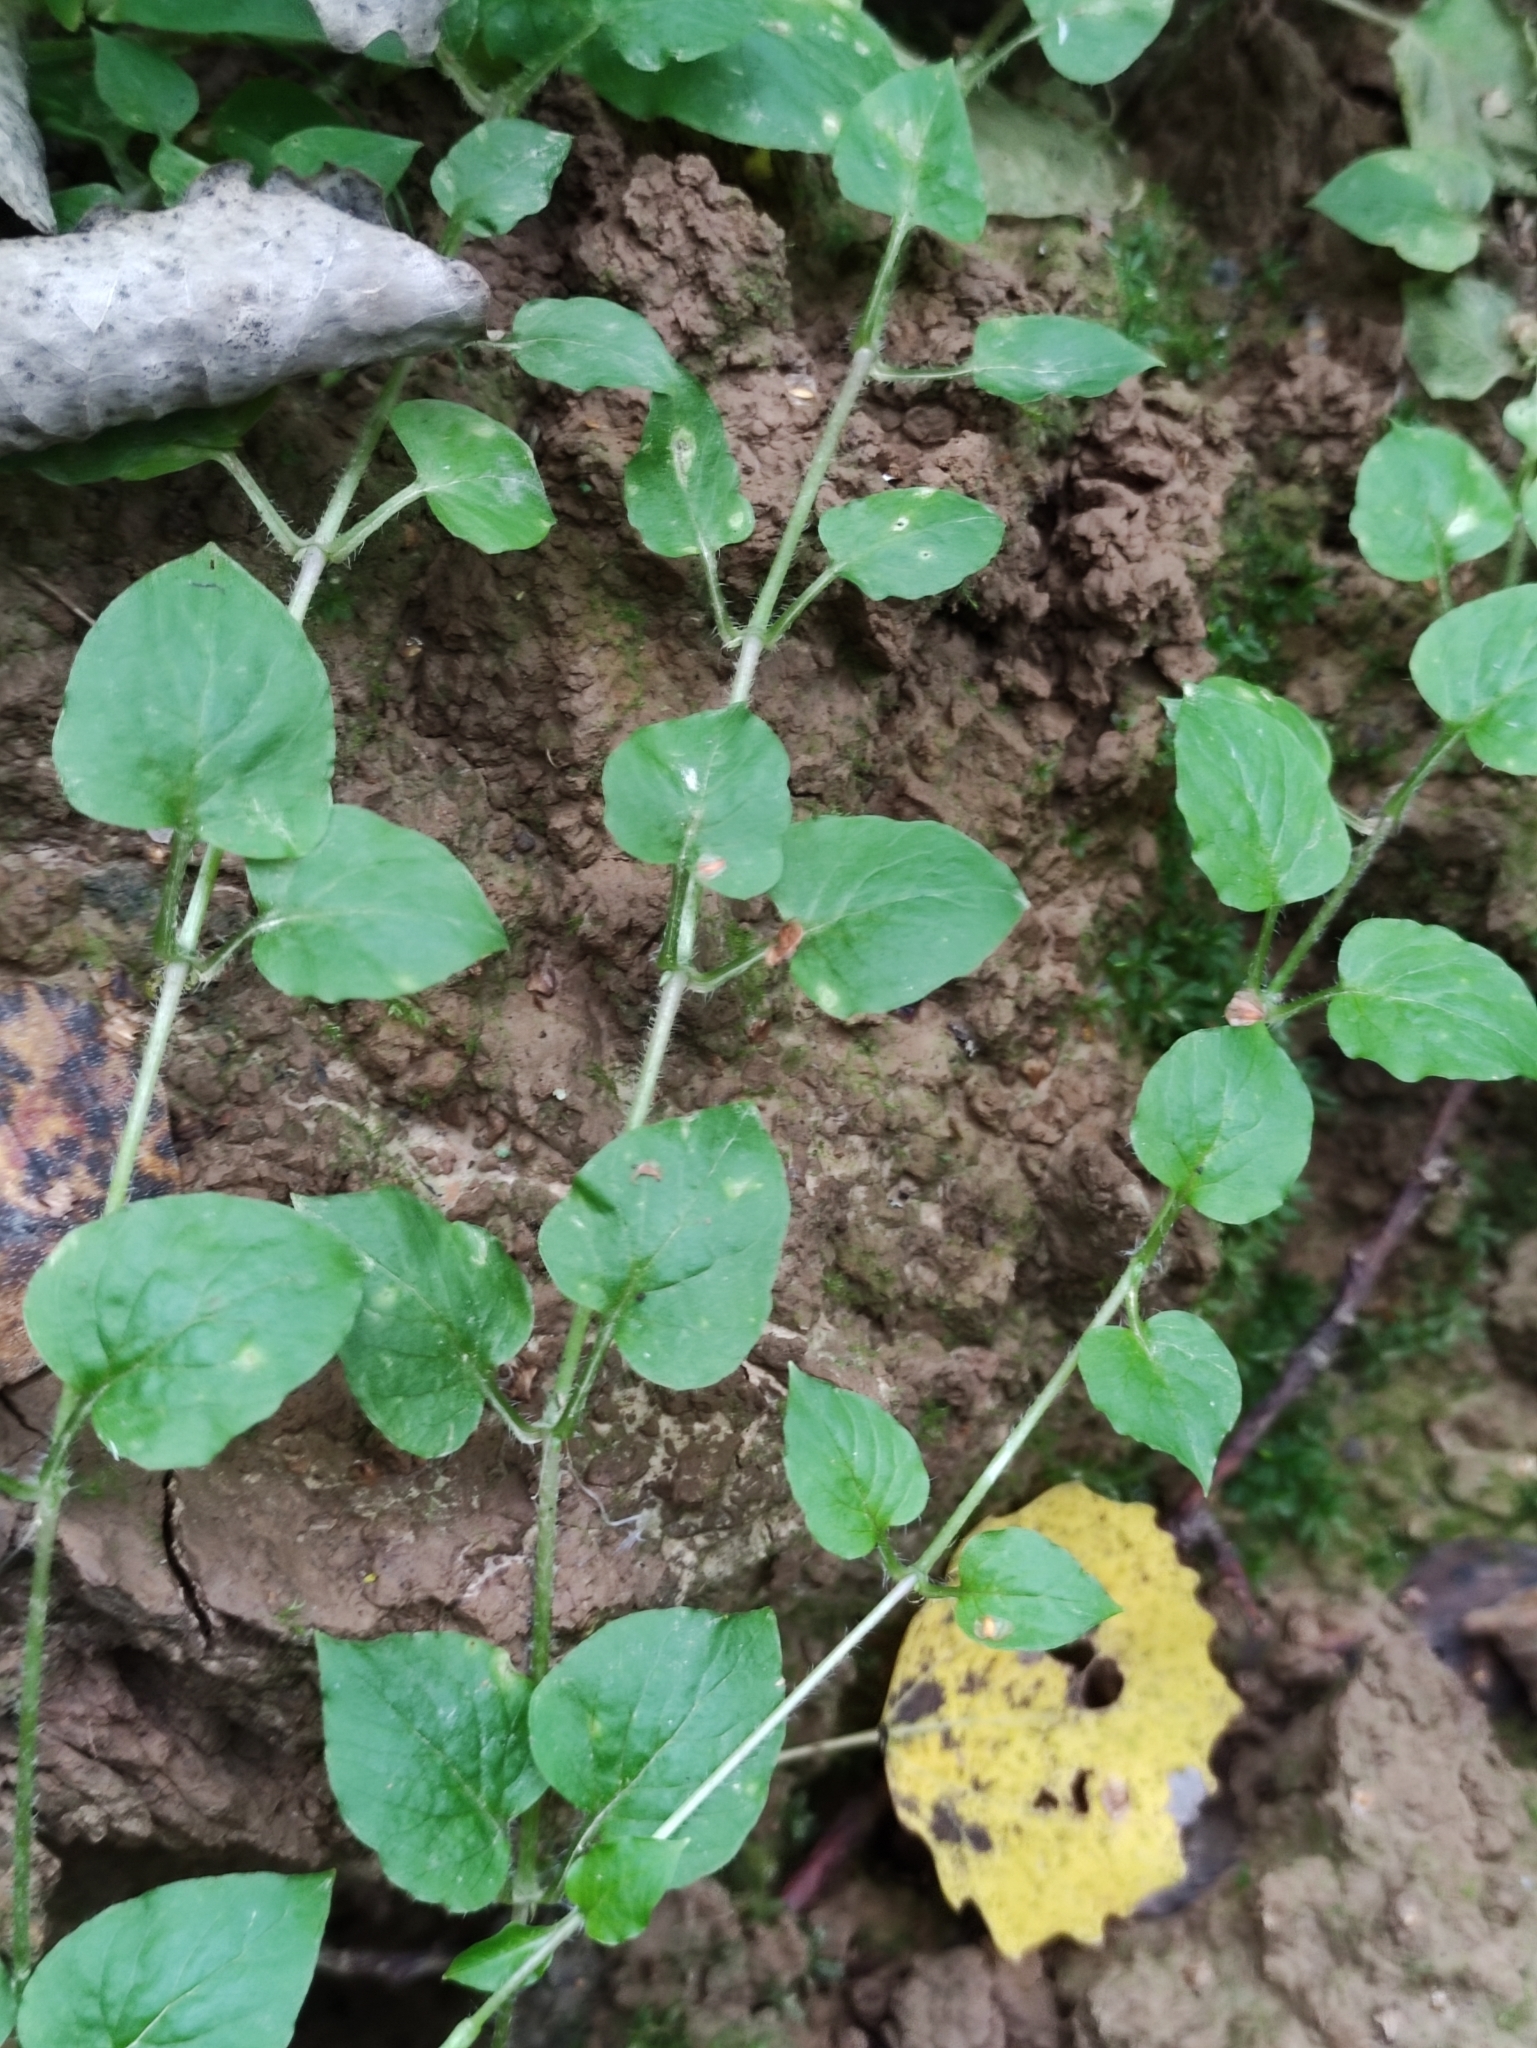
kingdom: Plantae
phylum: Tracheophyta
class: Magnoliopsida
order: Caryophyllales
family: Caryophyllaceae
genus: Stellaria
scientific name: Stellaria nemorum
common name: Wood stitchwort
